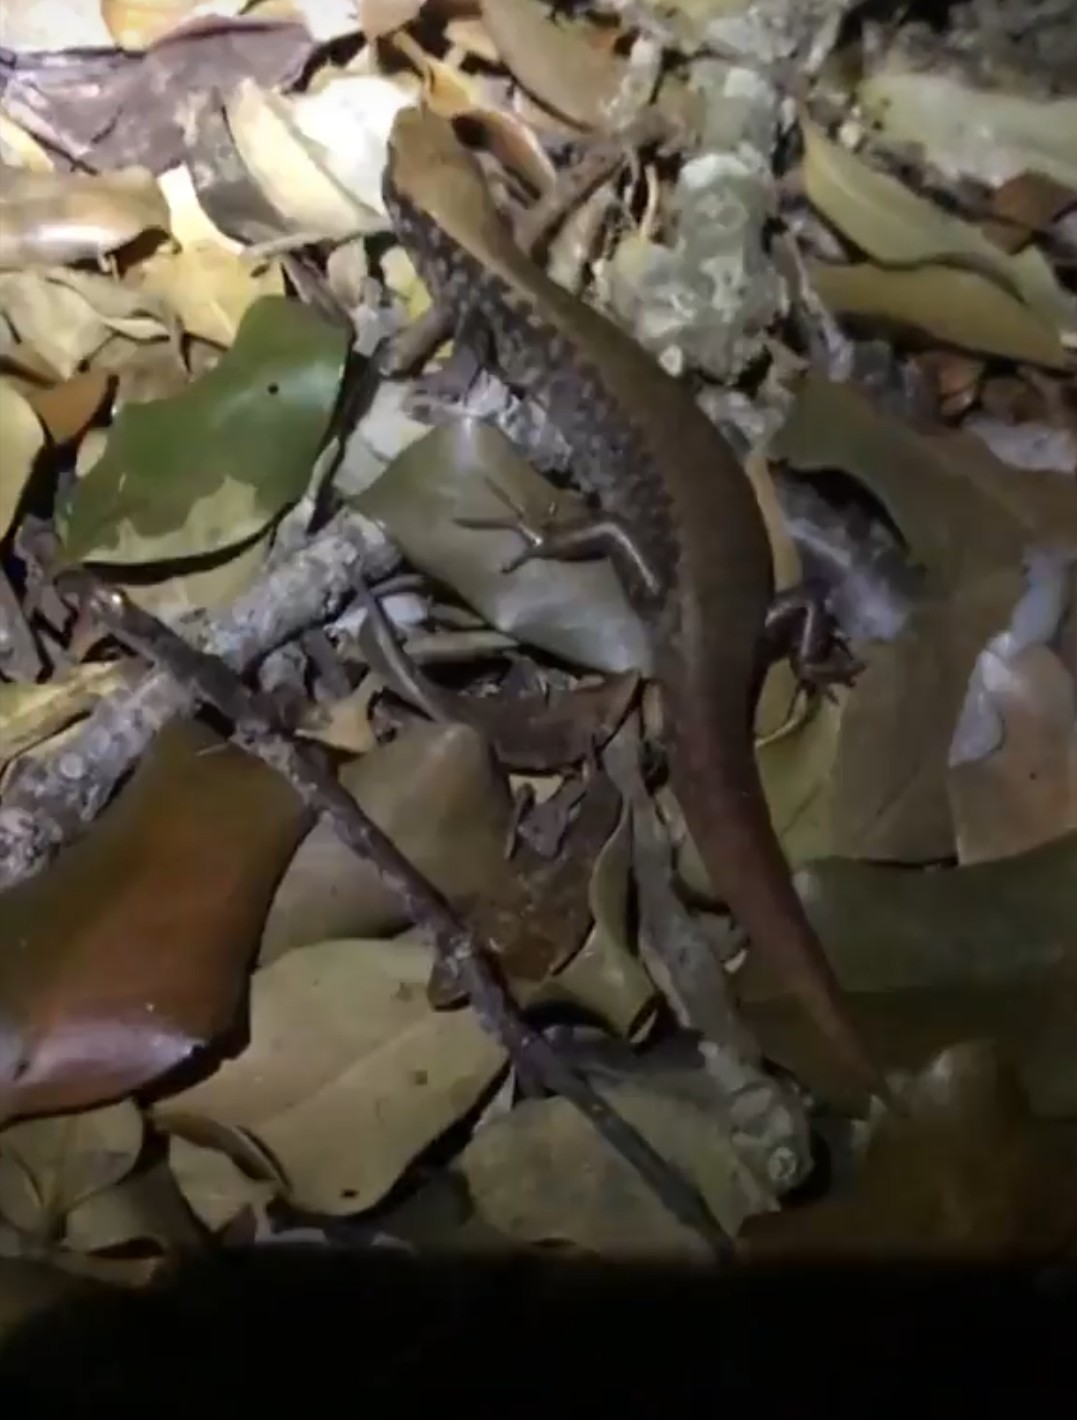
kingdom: Animalia
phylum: Chordata
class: Squamata
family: Scincidae
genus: Oligosoma
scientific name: Oligosoma oliveri
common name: Marbled skink
